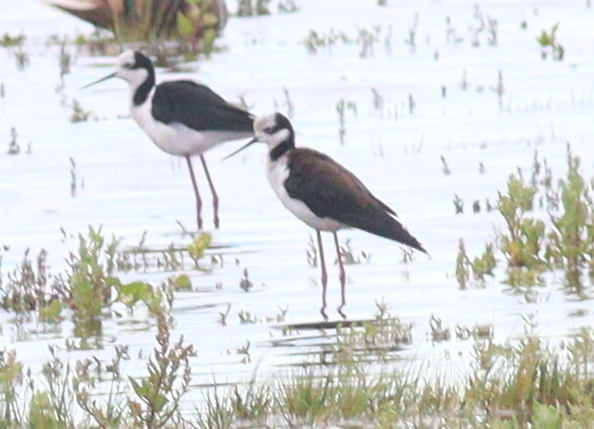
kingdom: Animalia
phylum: Chordata
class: Aves
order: Charadriiformes
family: Recurvirostridae
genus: Himantopus
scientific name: Himantopus mexicanus
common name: Black-necked stilt
